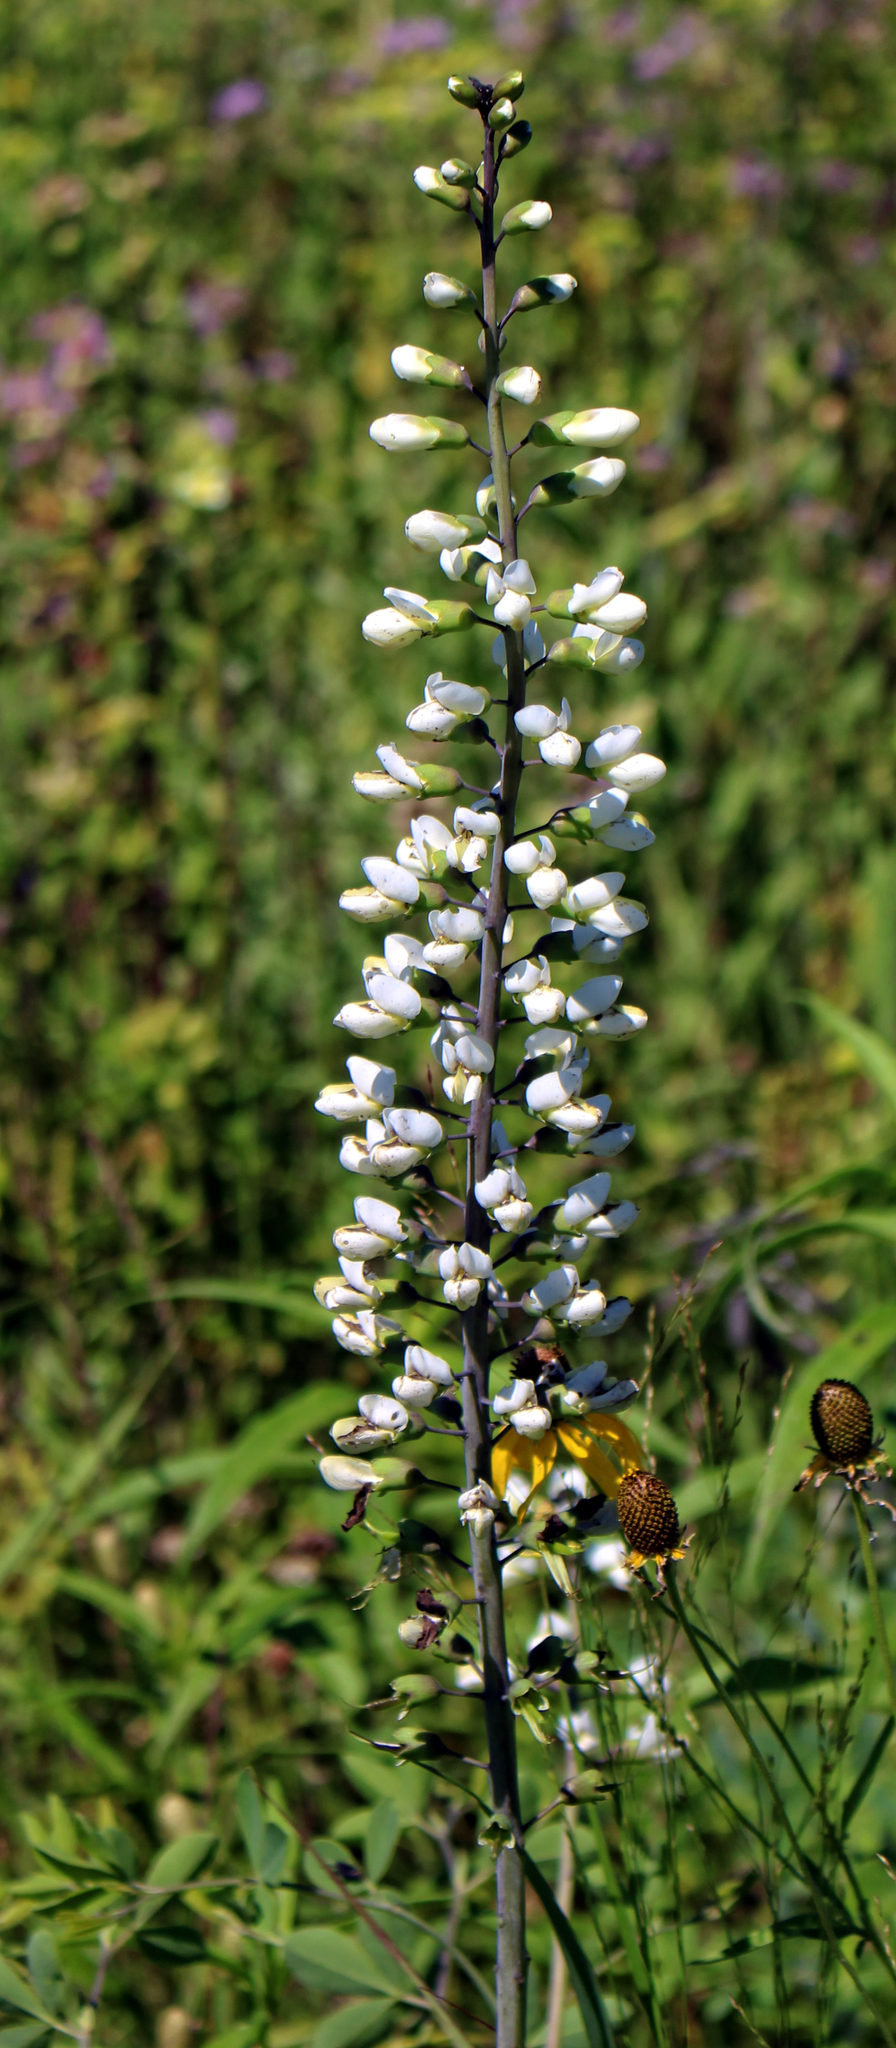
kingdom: Plantae
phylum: Tracheophyta
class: Magnoliopsida
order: Fabales
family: Fabaceae
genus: Baptisia
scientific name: Baptisia alba
